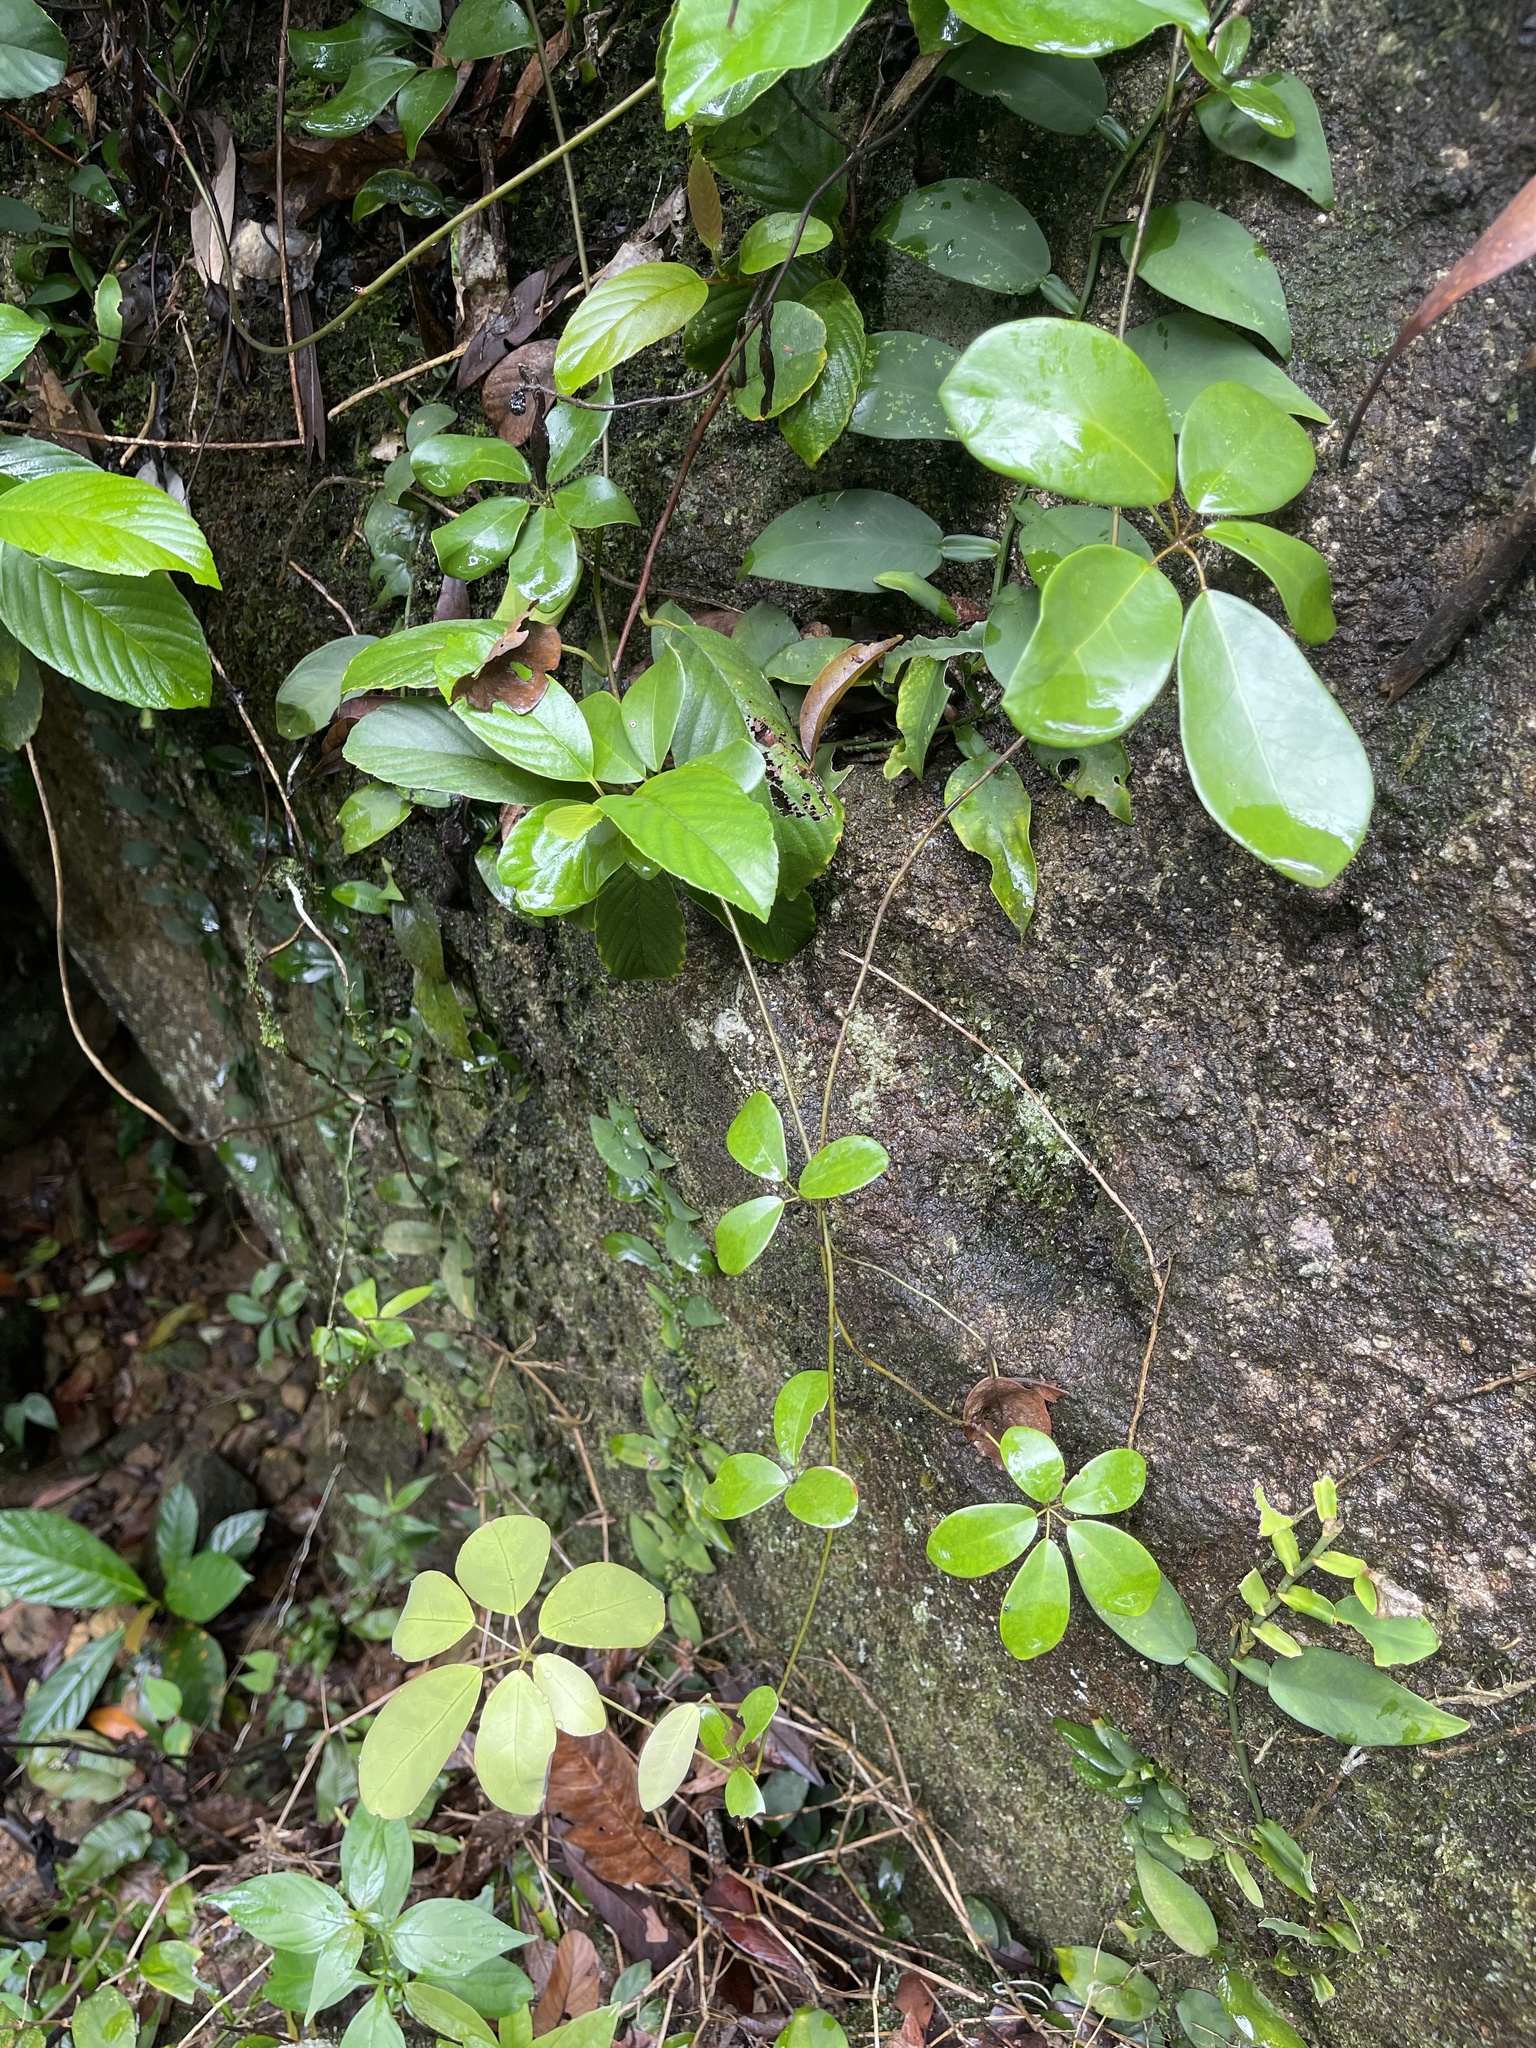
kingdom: Plantae
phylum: Tracheophyta
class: Magnoliopsida
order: Ranunculales
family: Lardizabalaceae
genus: Akebia
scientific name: Akebia quinata
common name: Five-leaf akebia
